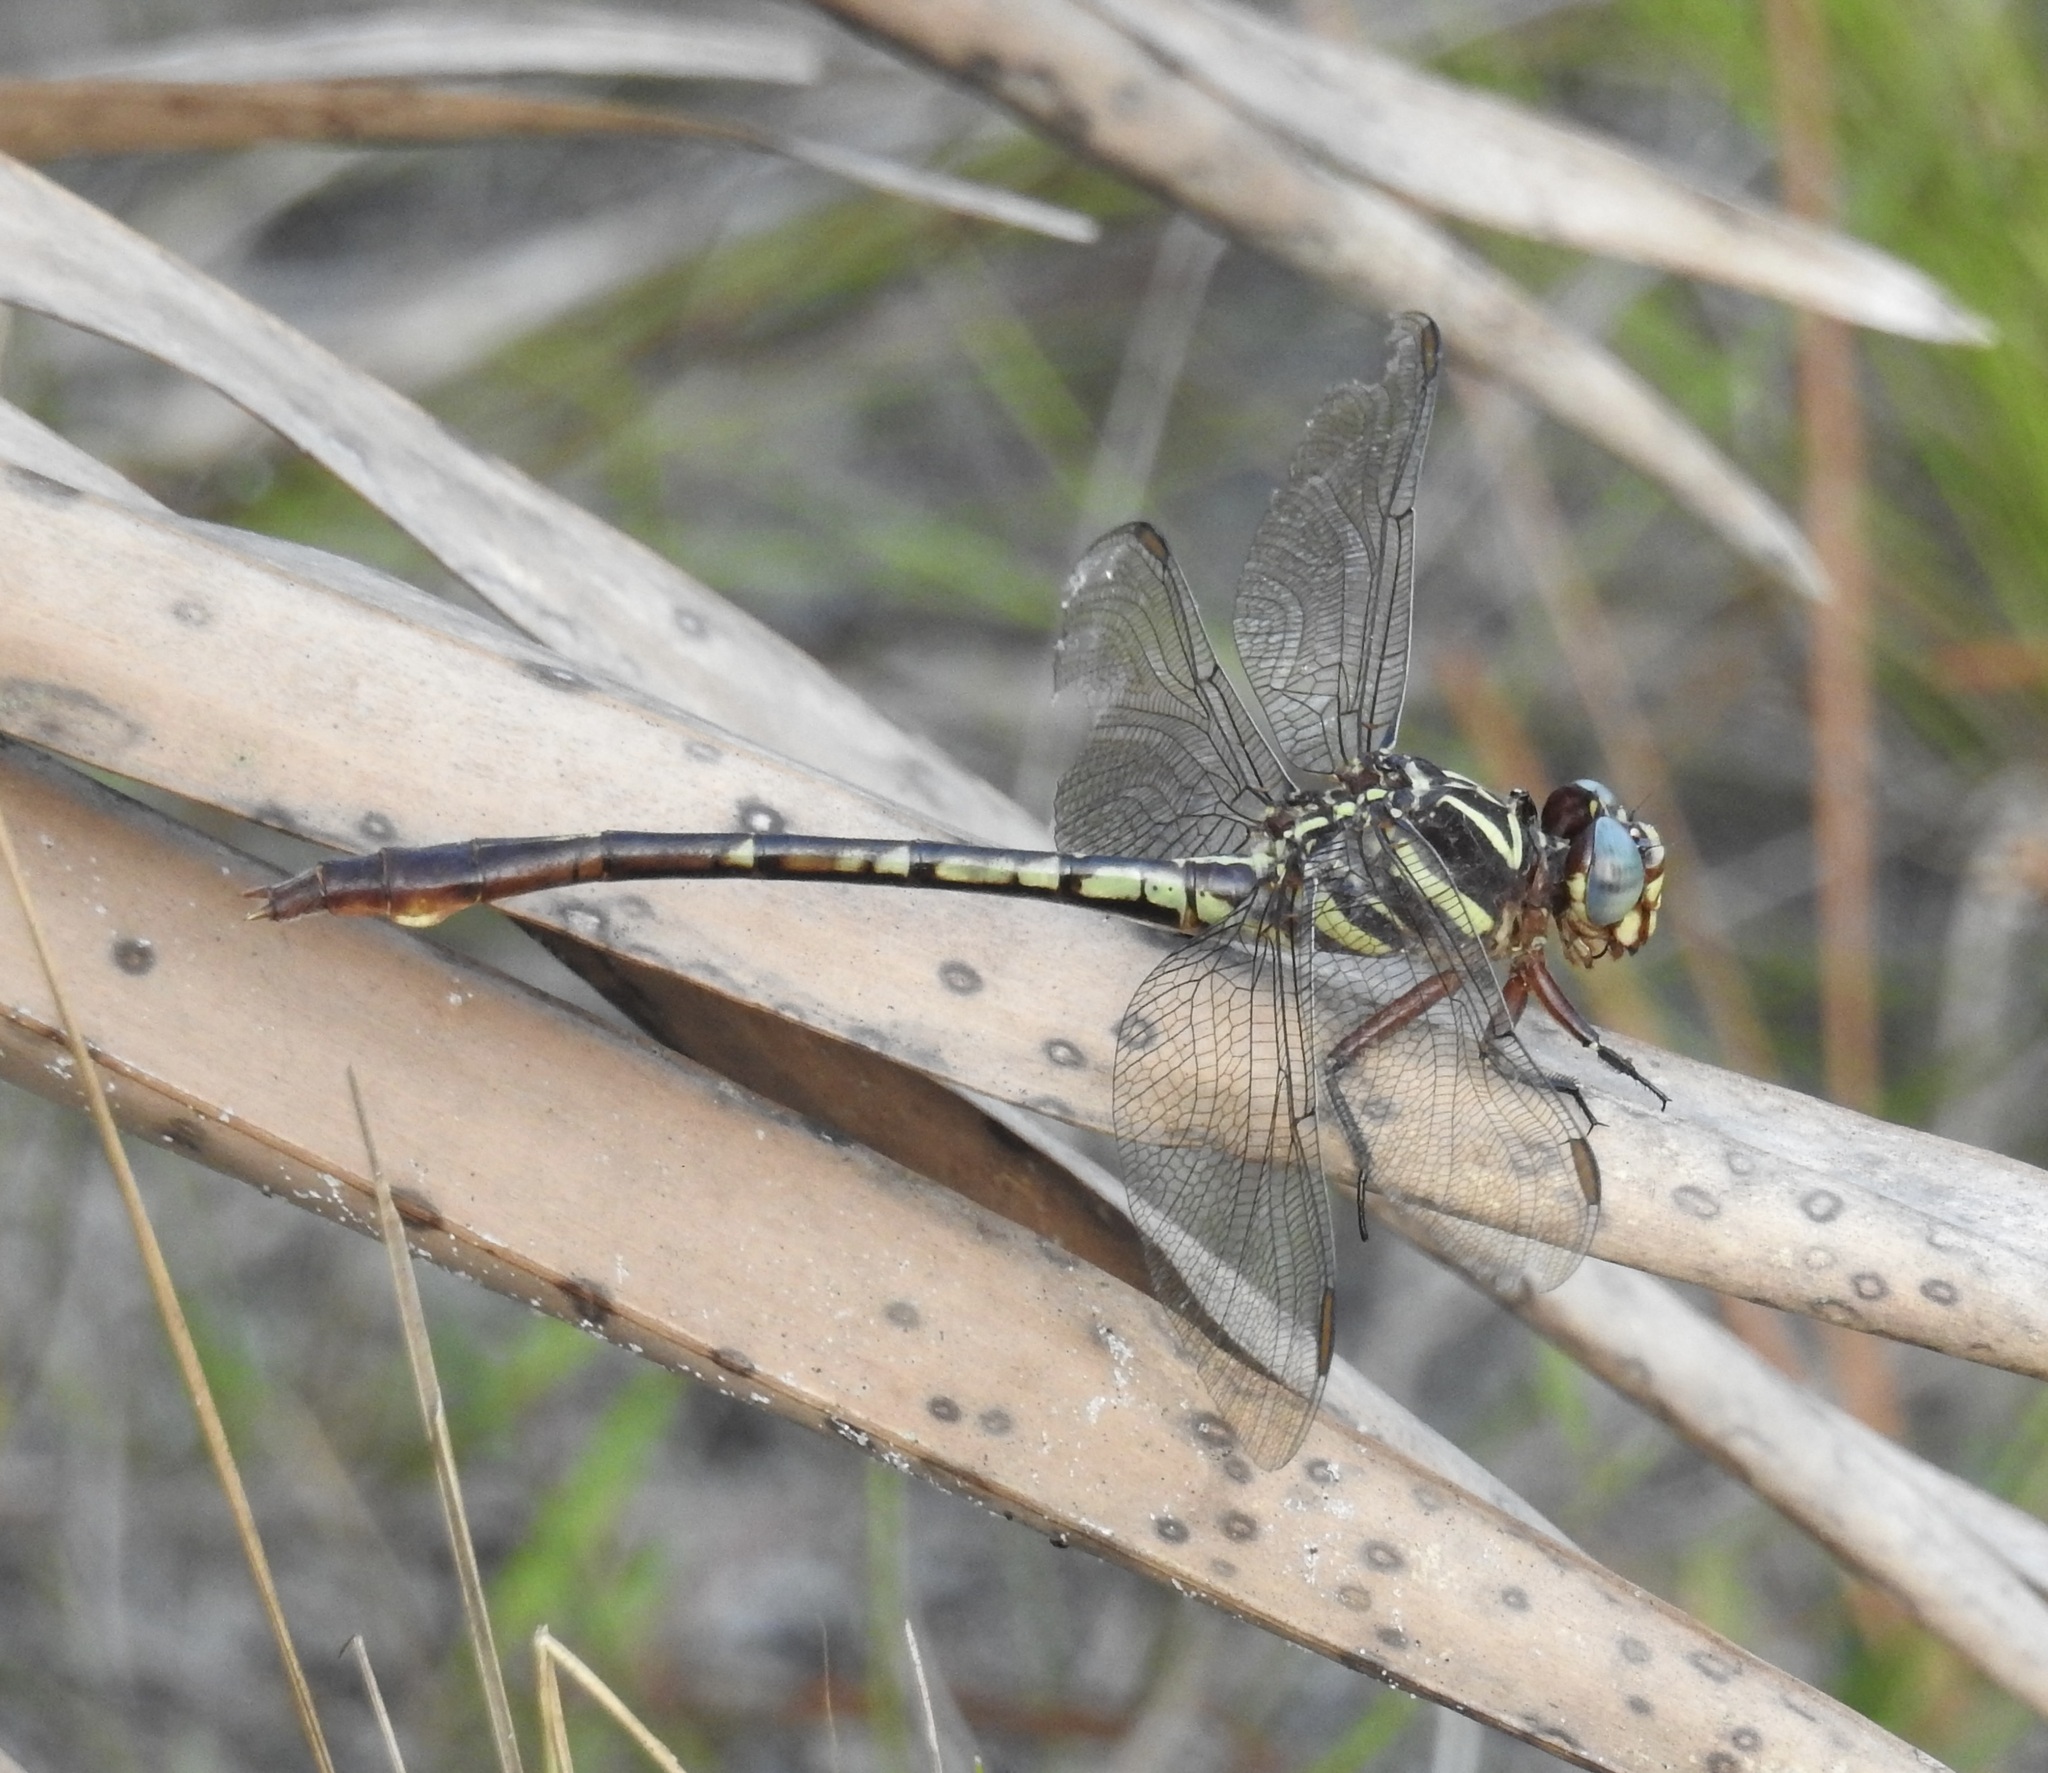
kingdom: Animalia
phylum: Arthropoda
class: Insecta
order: Odonata
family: Gomphidae
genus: Aphylla
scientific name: Aphylla williamsoni
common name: Two-striped forceptail
